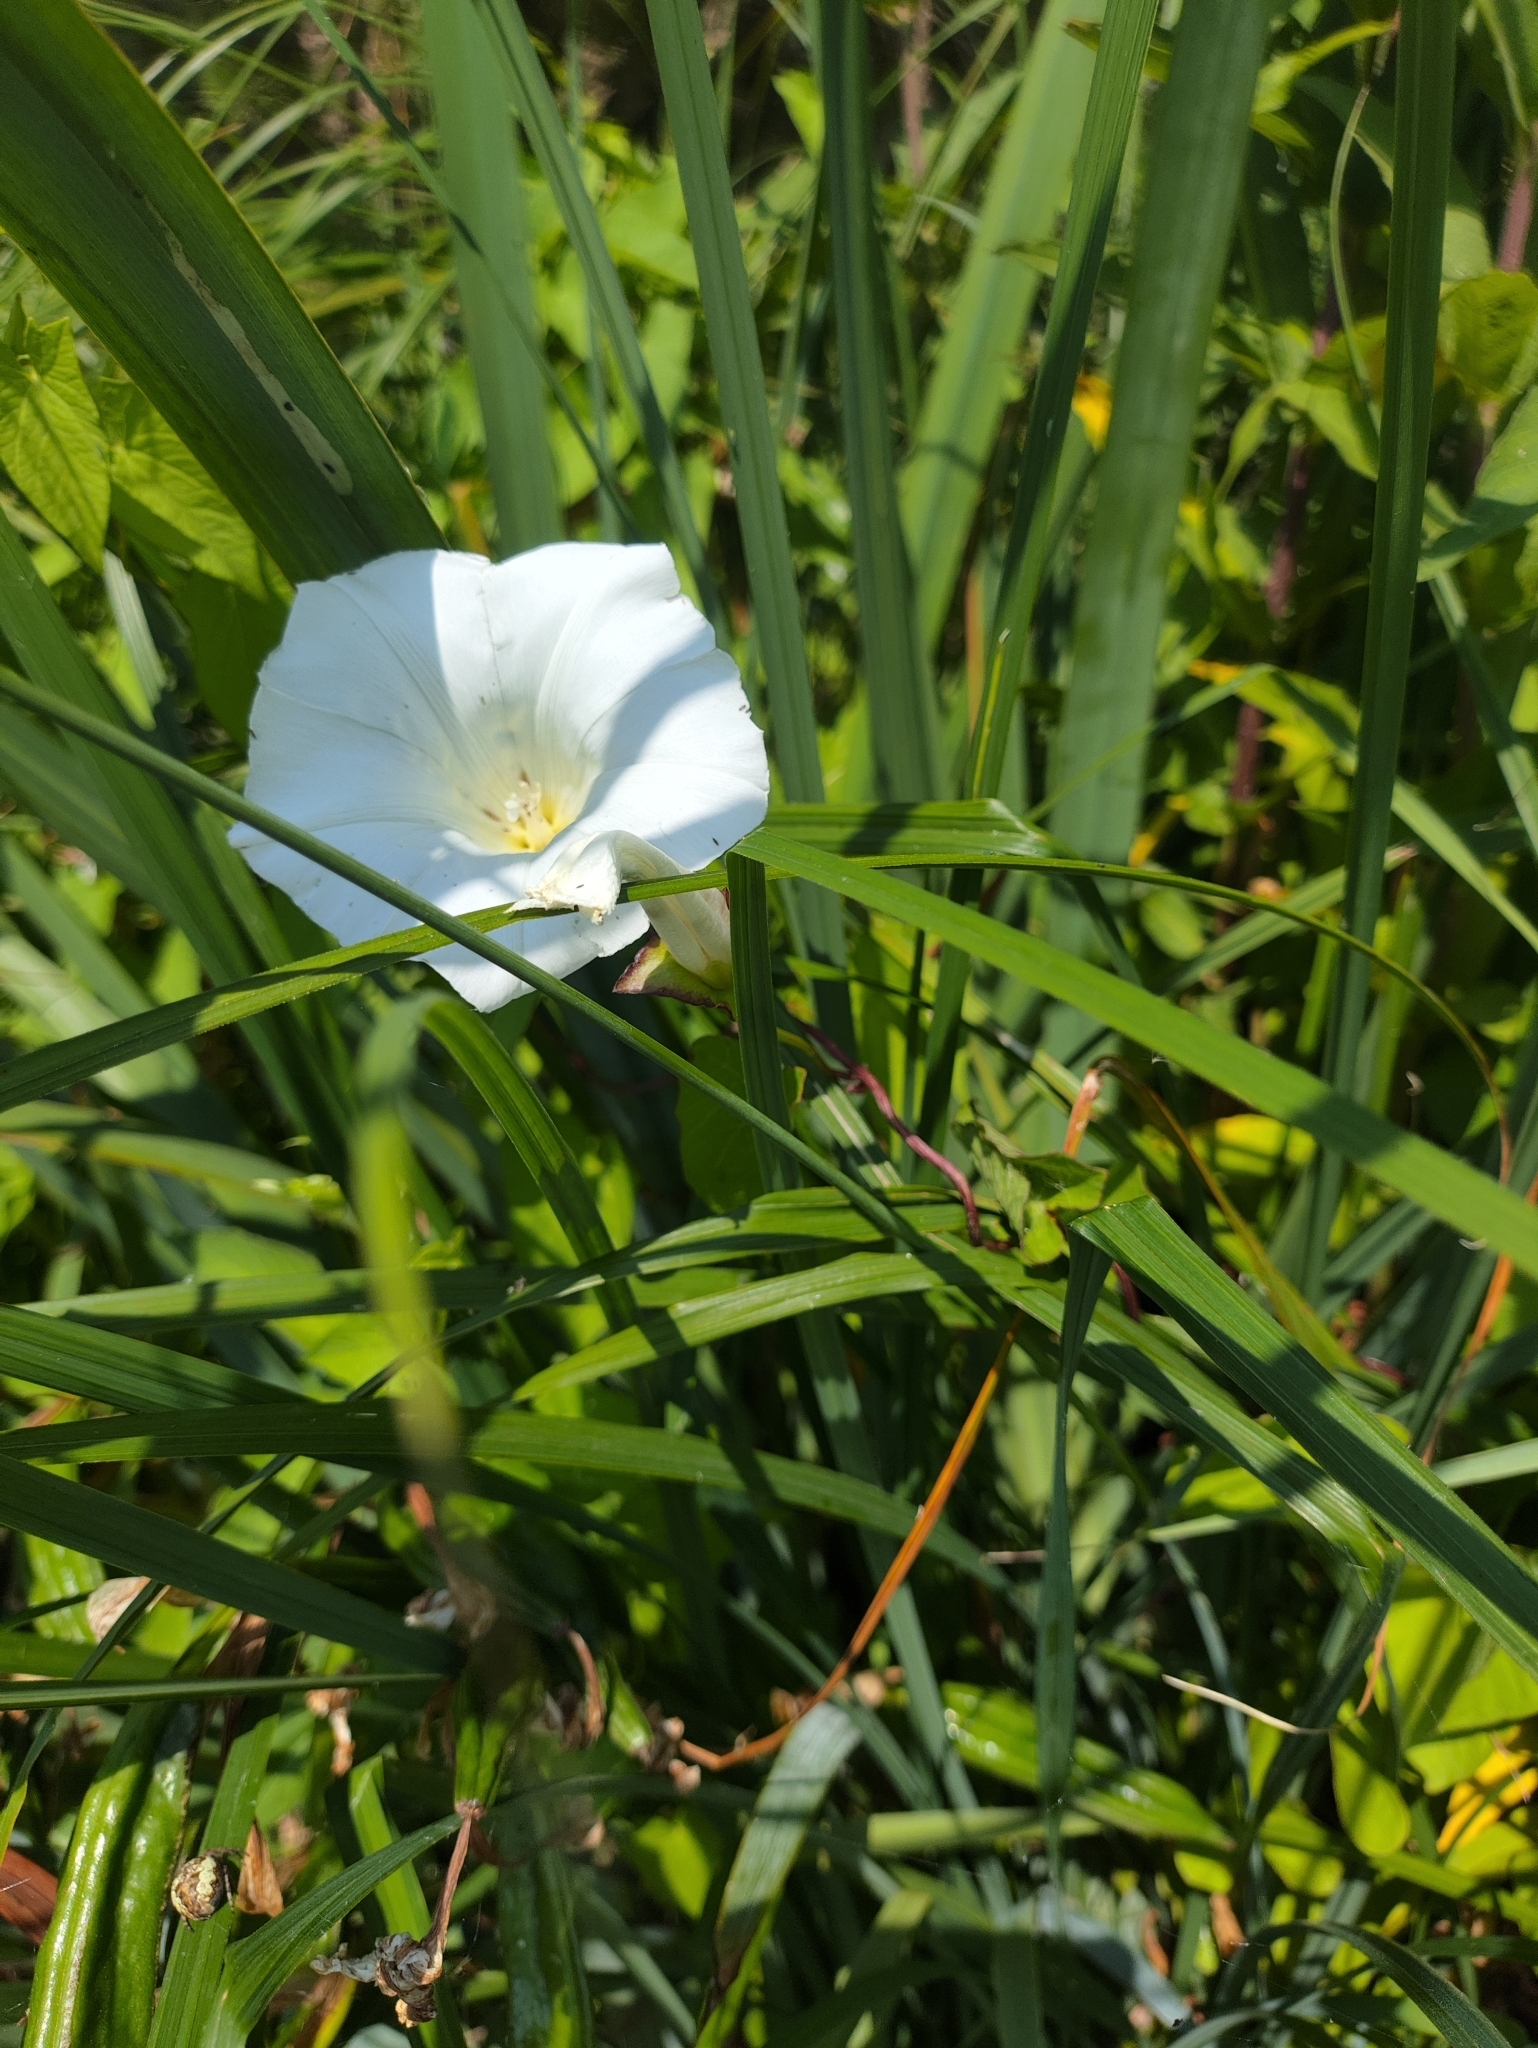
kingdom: Plantae
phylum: Tracheophyta
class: Magnoliopsida
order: Solanales
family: Convolvulaceae
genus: Calystegia
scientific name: Calystegia sepium
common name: Hedge bindweed
